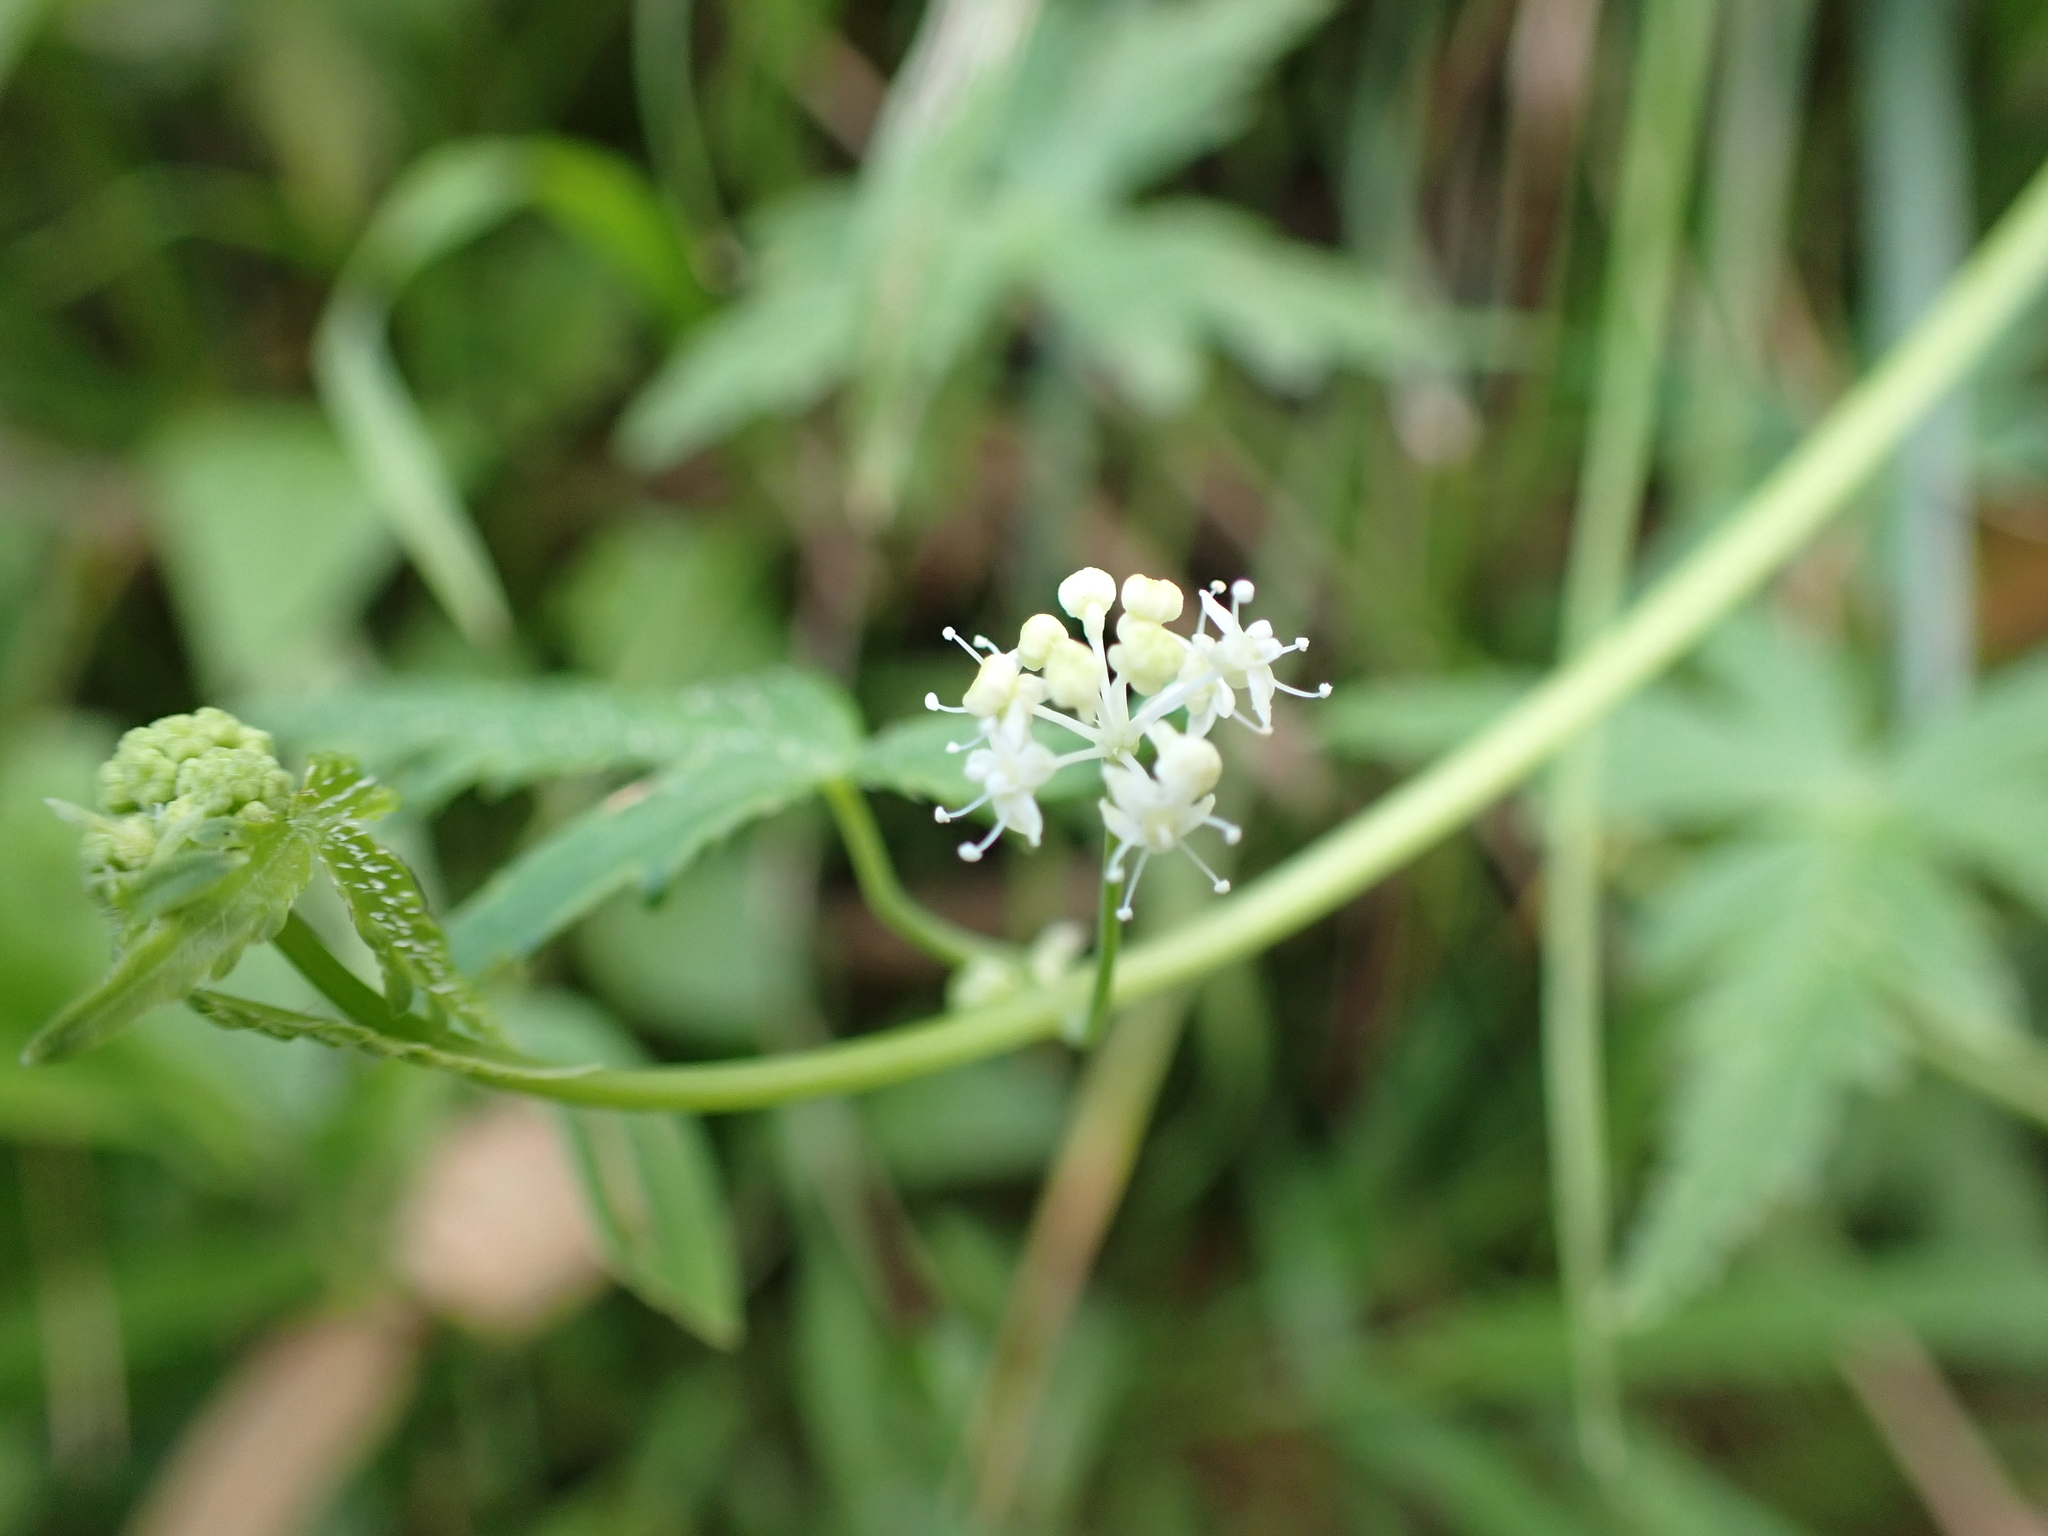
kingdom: Plantae
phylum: Tracheophyta
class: Magnoliopsida
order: Apiales
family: Araliaceae
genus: Hydrocotyle
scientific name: Hydrocotyle geraniifolia
